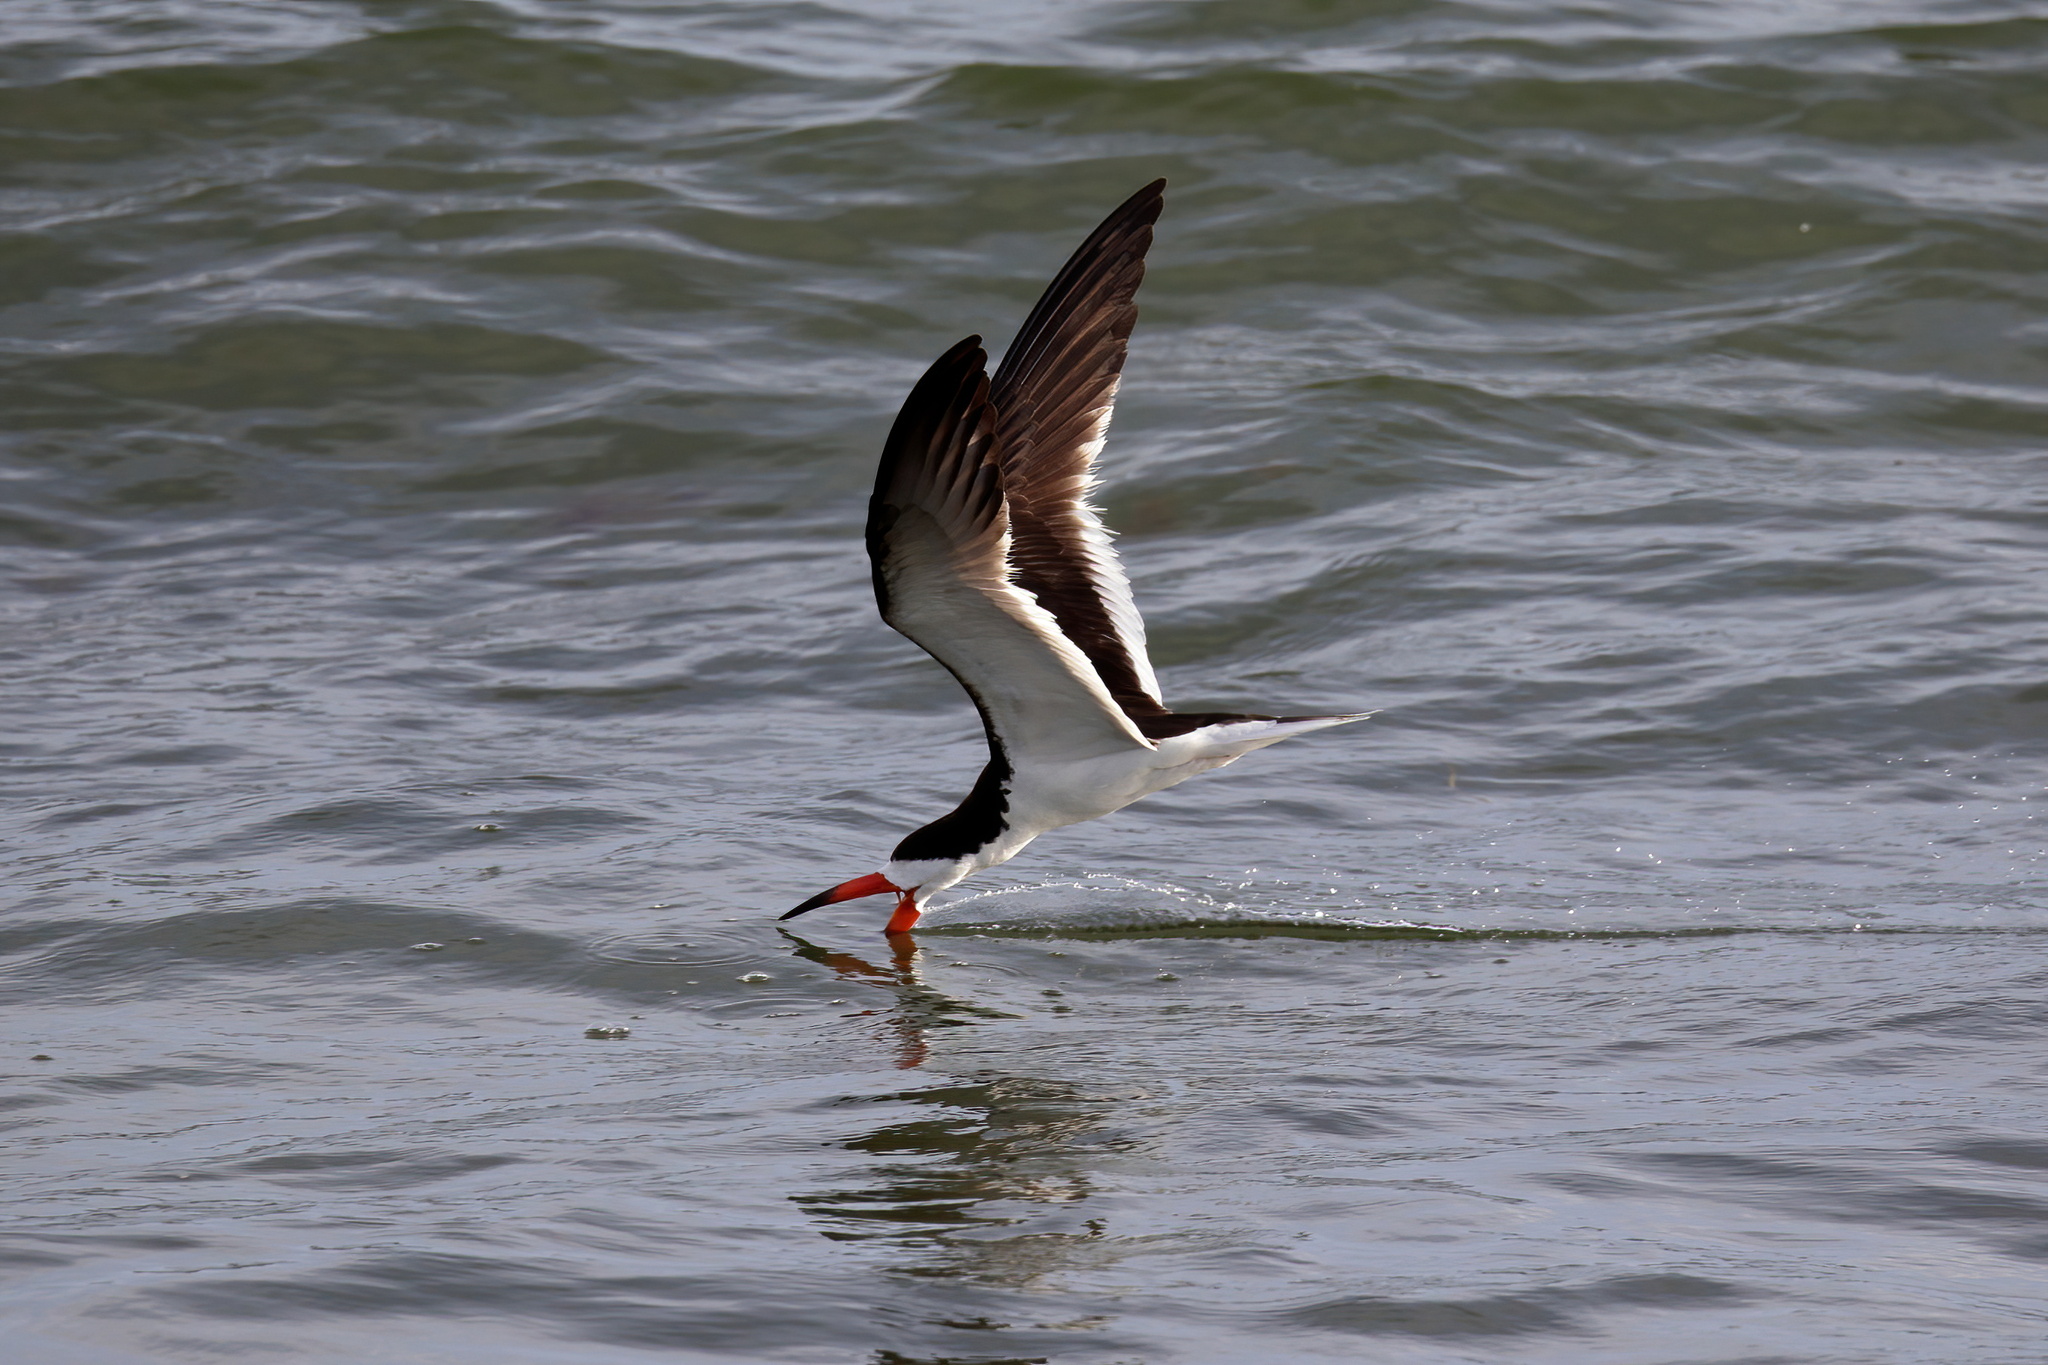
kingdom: Animalia
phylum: Chordata
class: Aves
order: Charadriiformes
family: Laridae
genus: Rynchops
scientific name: Rynchops niger
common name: Black skimmer
